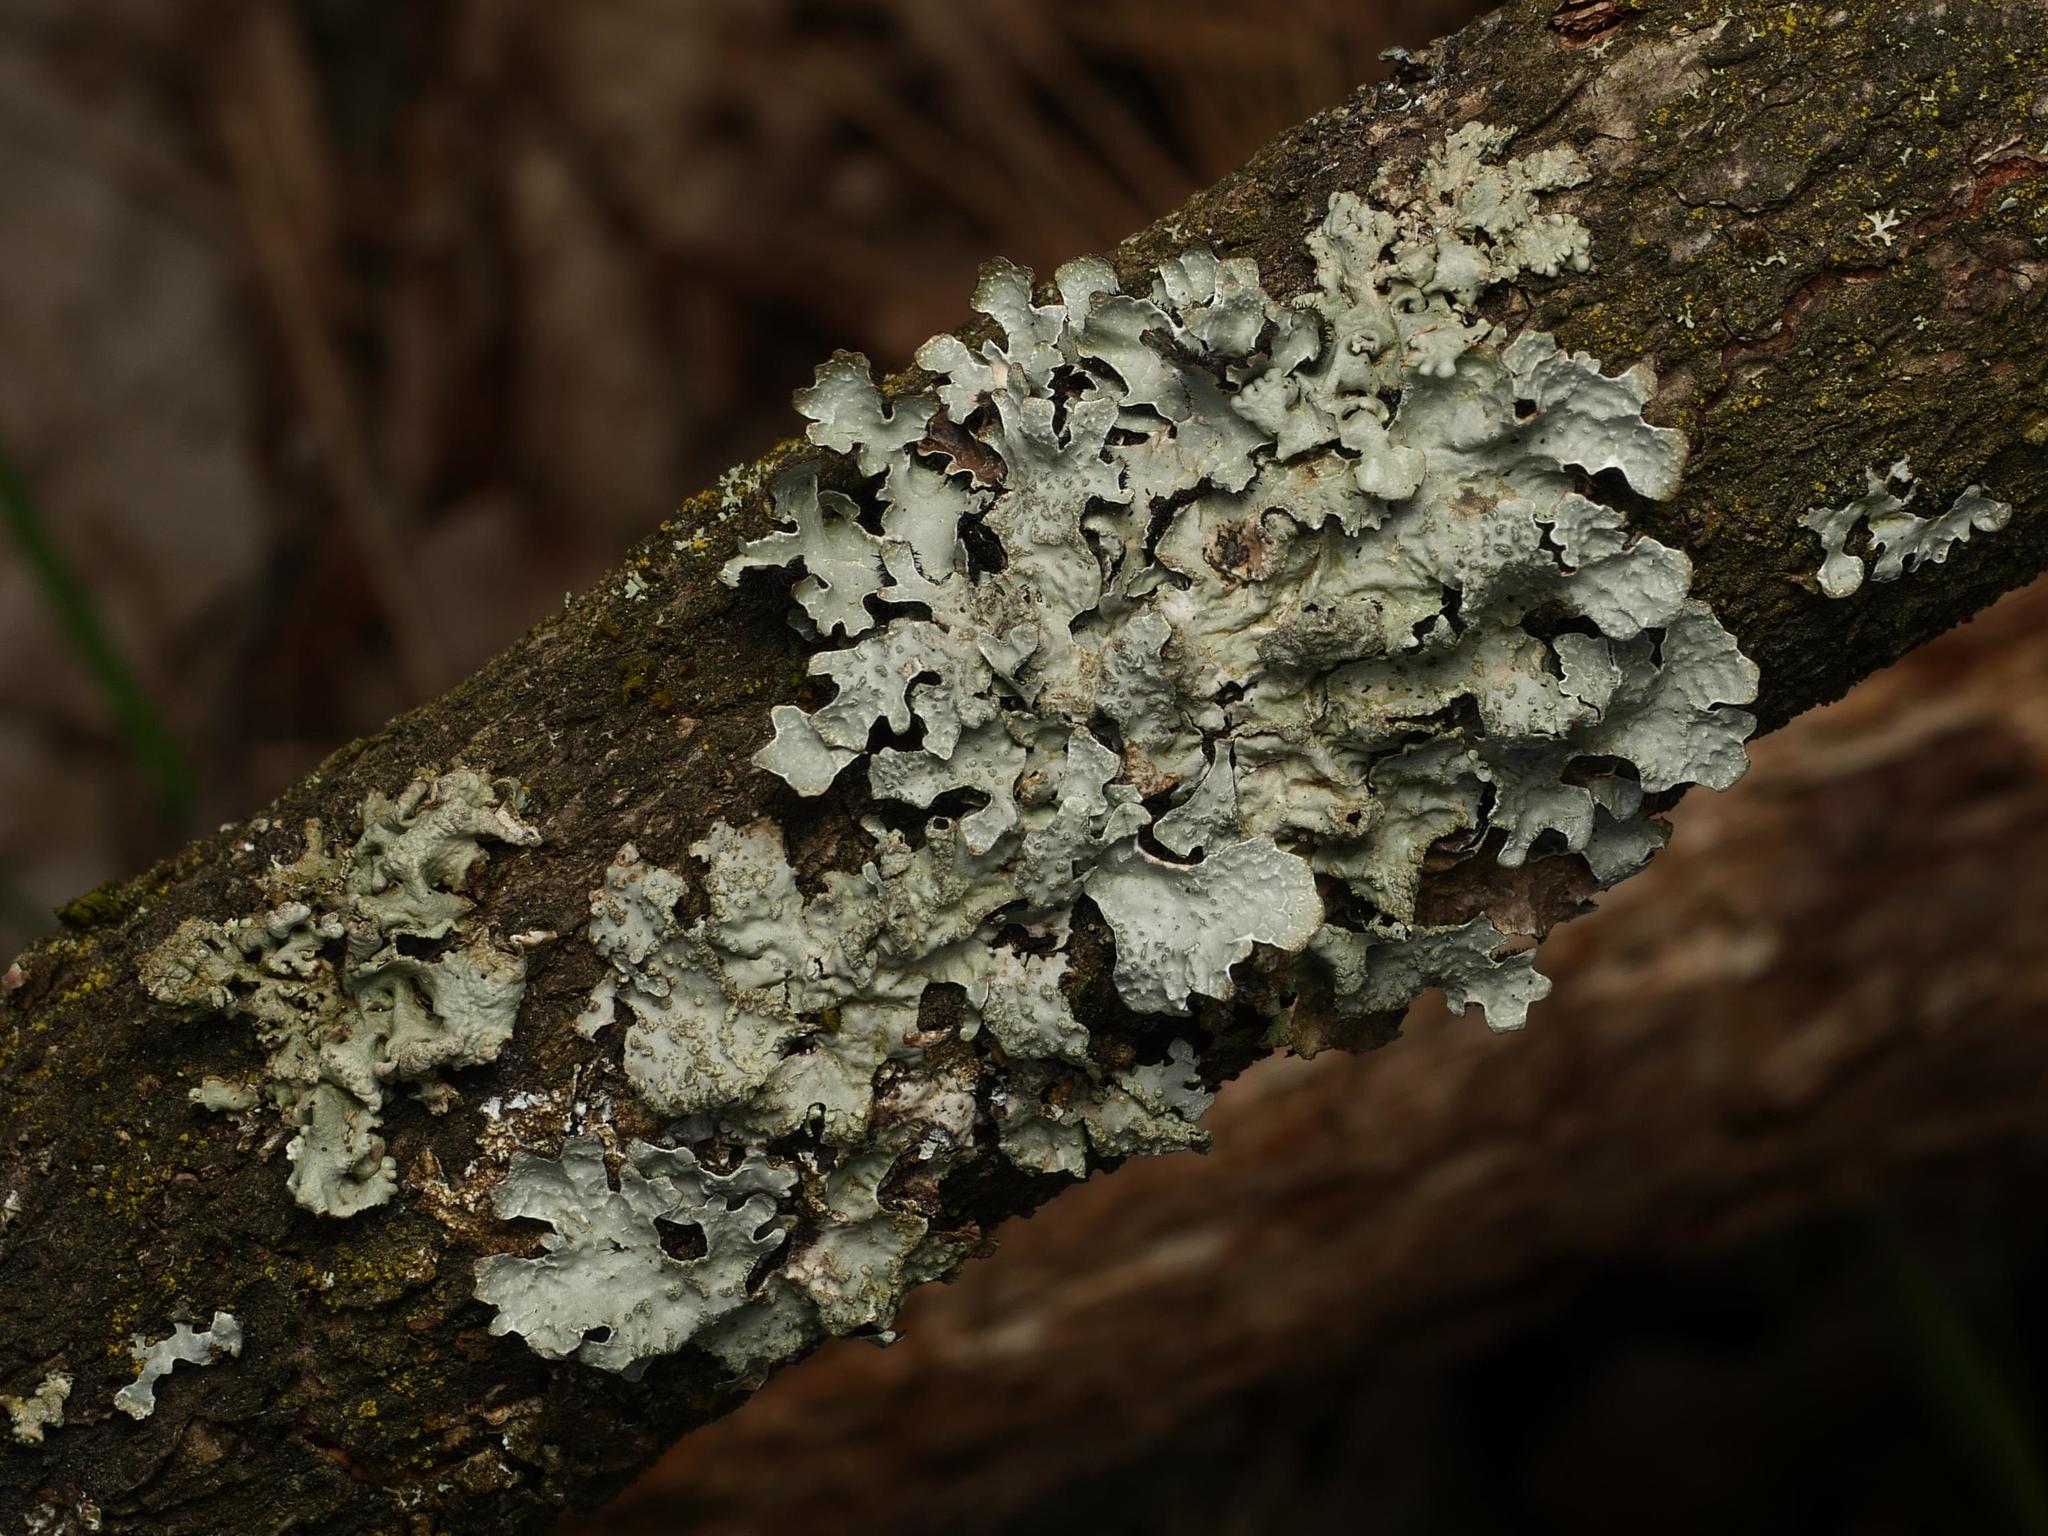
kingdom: Fungi
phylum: Ascomycota
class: Lecanoromycetes
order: Lecanorales
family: Parmeliaceae
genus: Parmelia
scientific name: Parmelia sulcata
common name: Netted shield lichen
